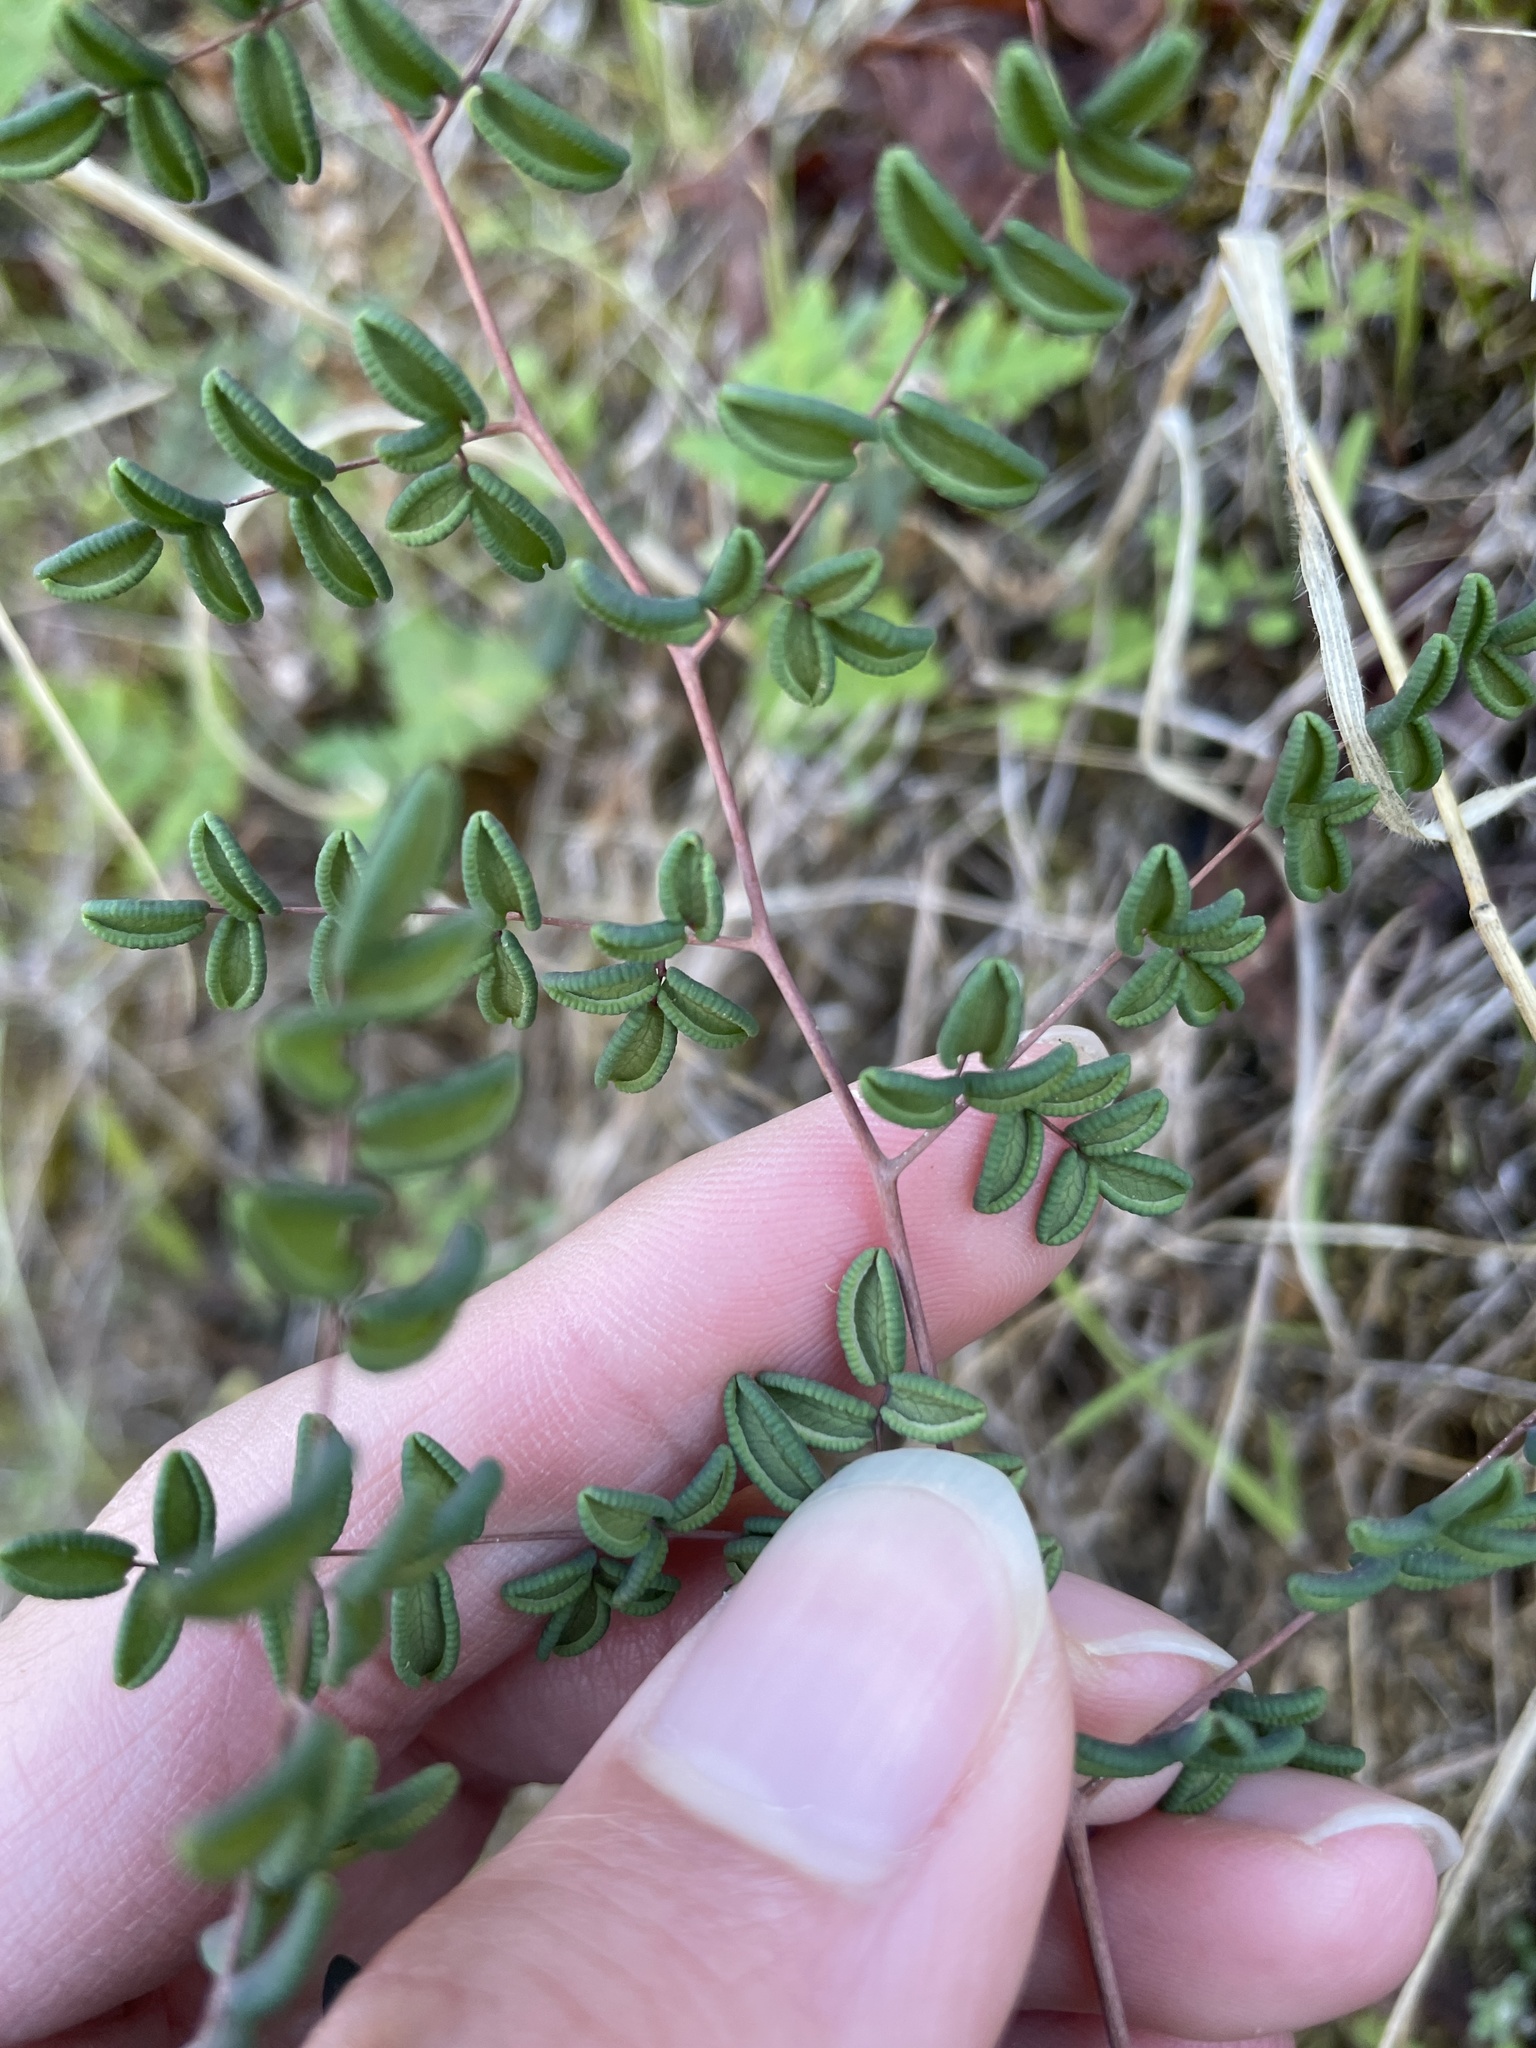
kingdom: Plantae
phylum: Tracheophyta
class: Polypodiopsida
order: Polypodiales
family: Pteridaceae
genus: Pellaea
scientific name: Pellaea andromedifolia
